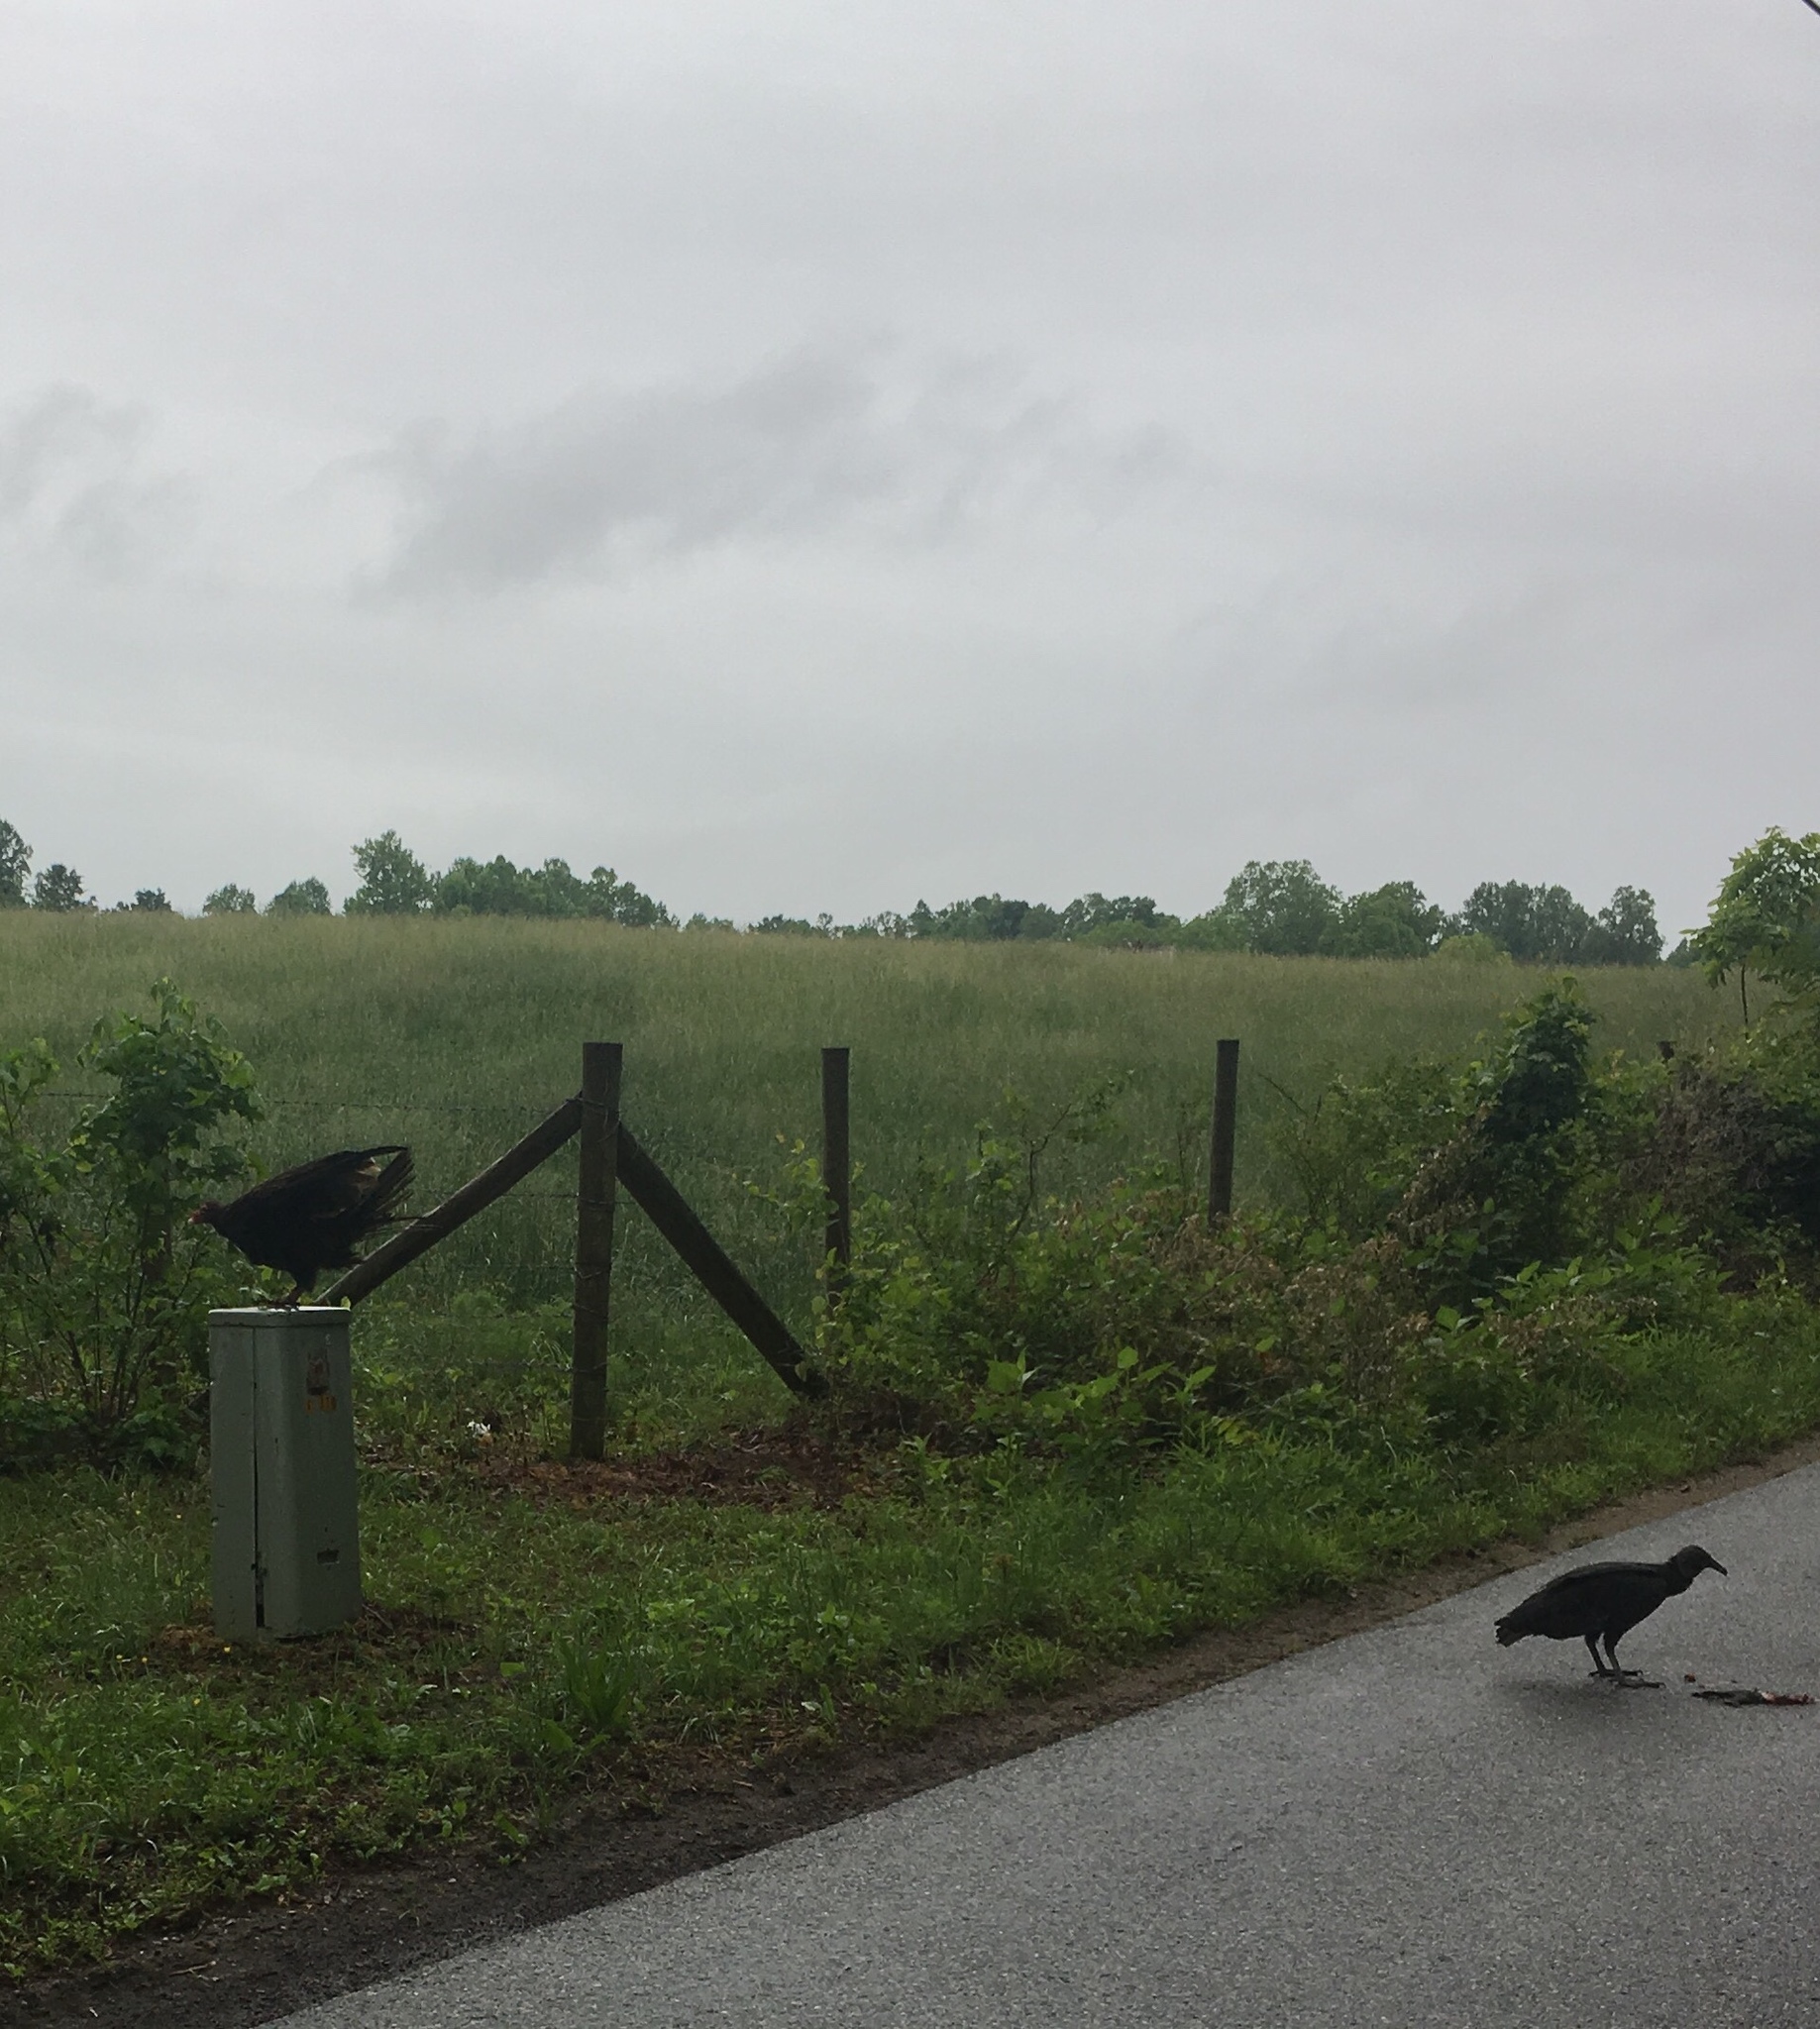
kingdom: Animalia
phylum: Chordata
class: Aves
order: Accipitriformes
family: Cathartidae
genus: Coragyps
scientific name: Coragyps atratus
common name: Black vulture
